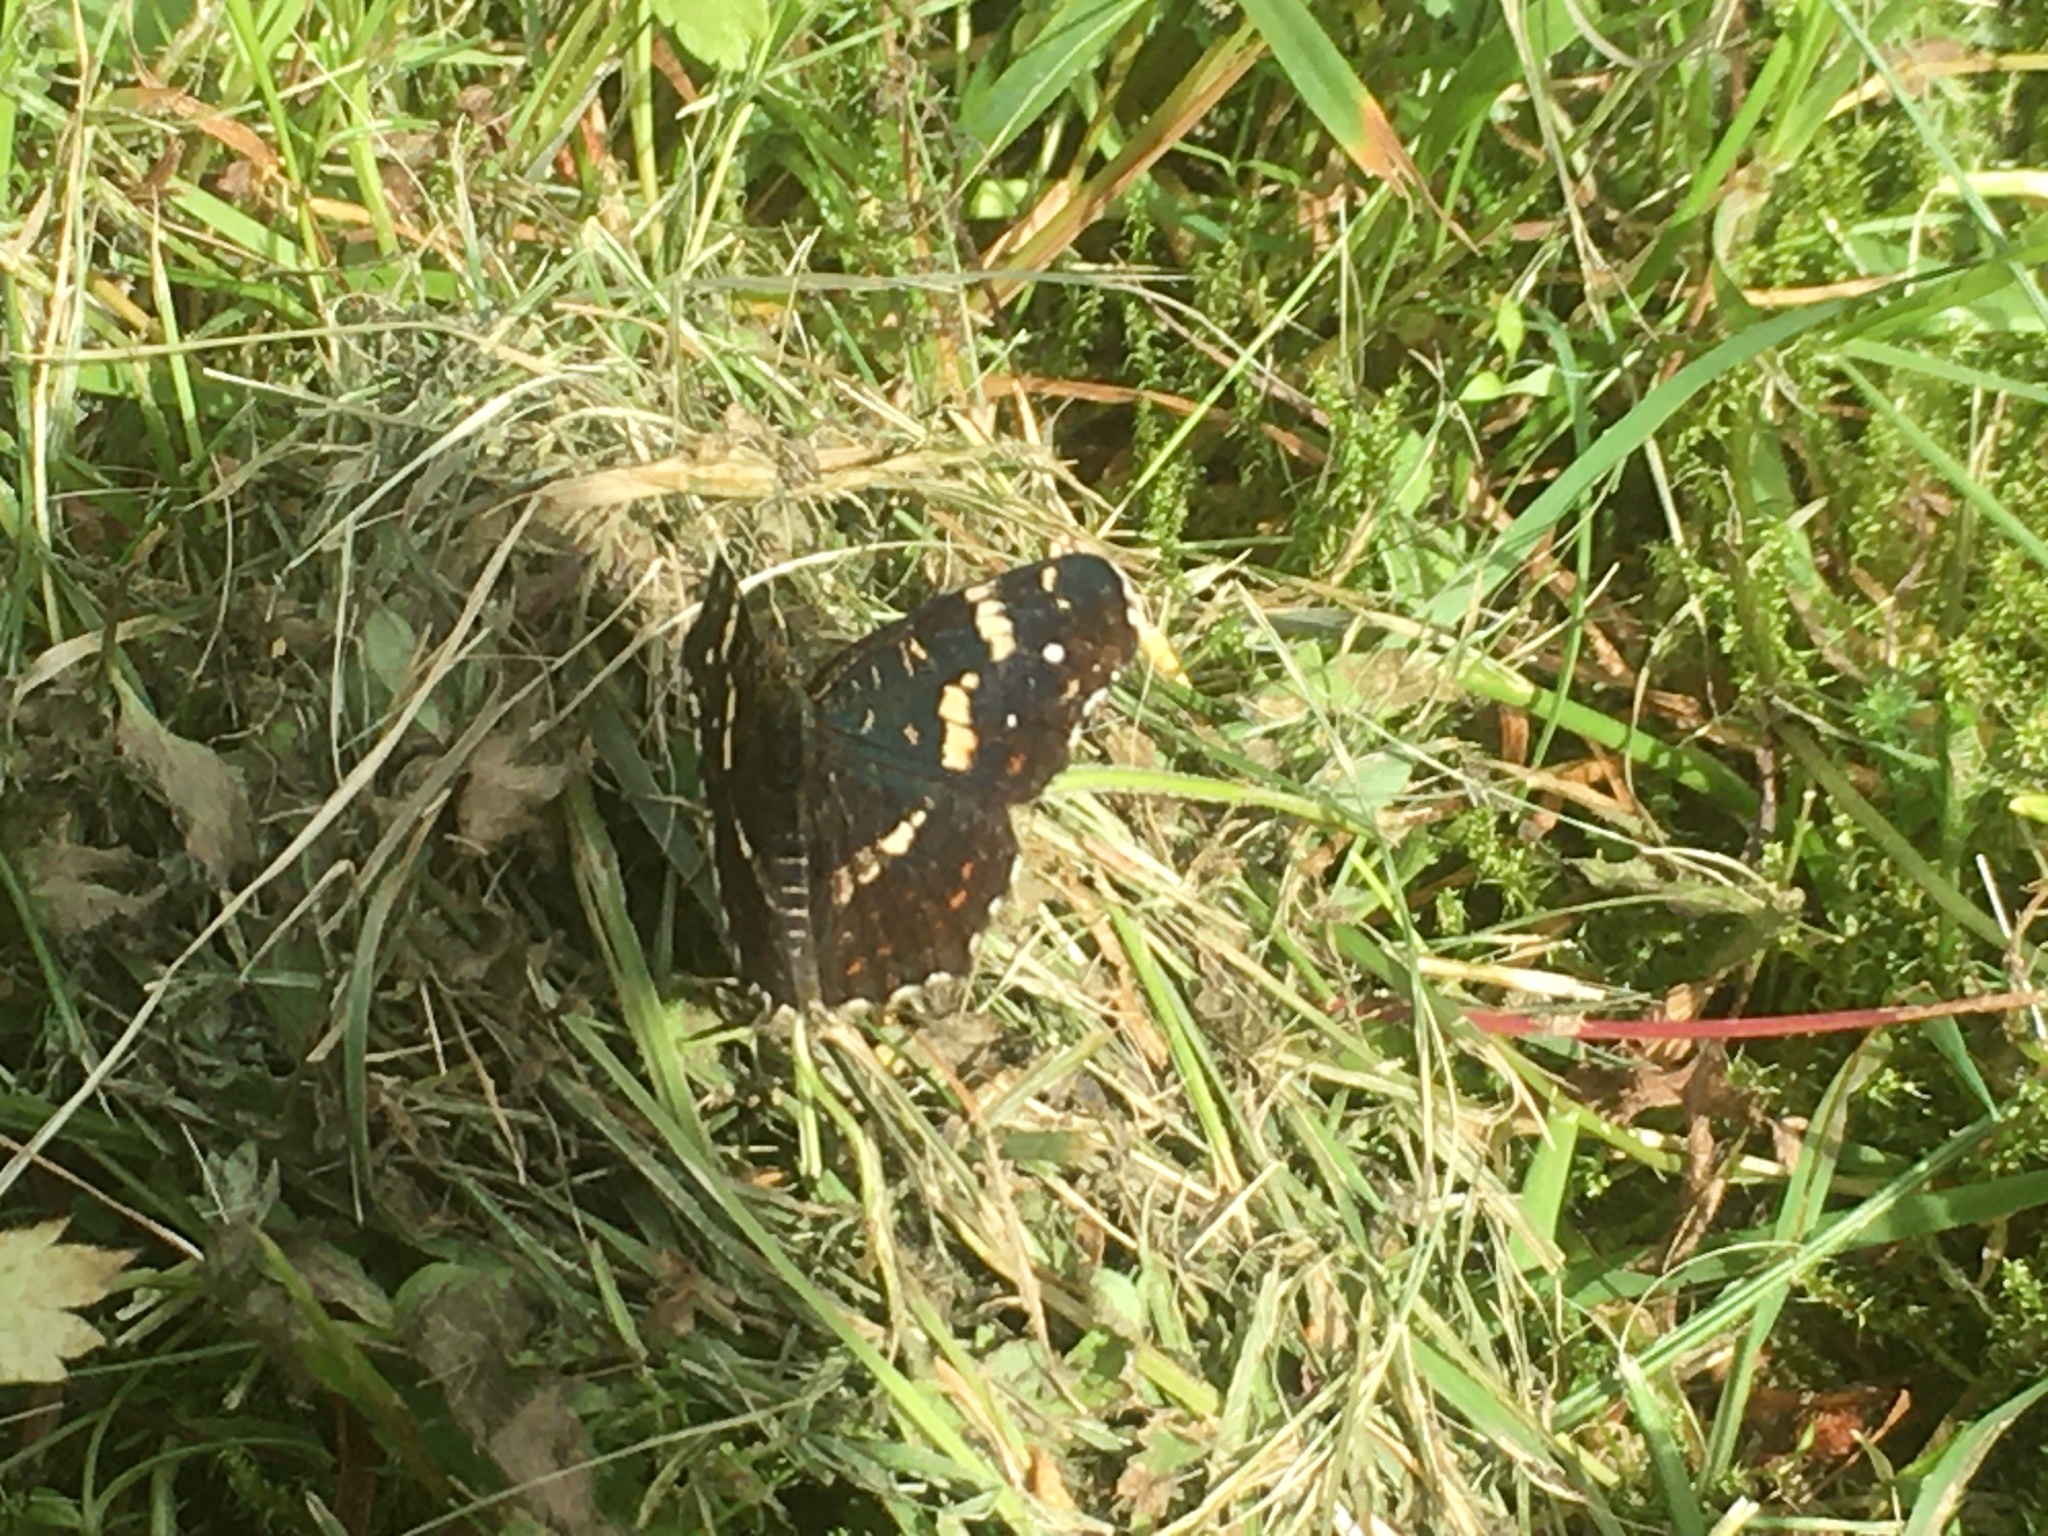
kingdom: Animalia
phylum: Arthropoda
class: Insecta
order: Lepidoptera
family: Nymphalidae
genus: Araschnia
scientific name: Araschnia levana
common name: Map butterfly
